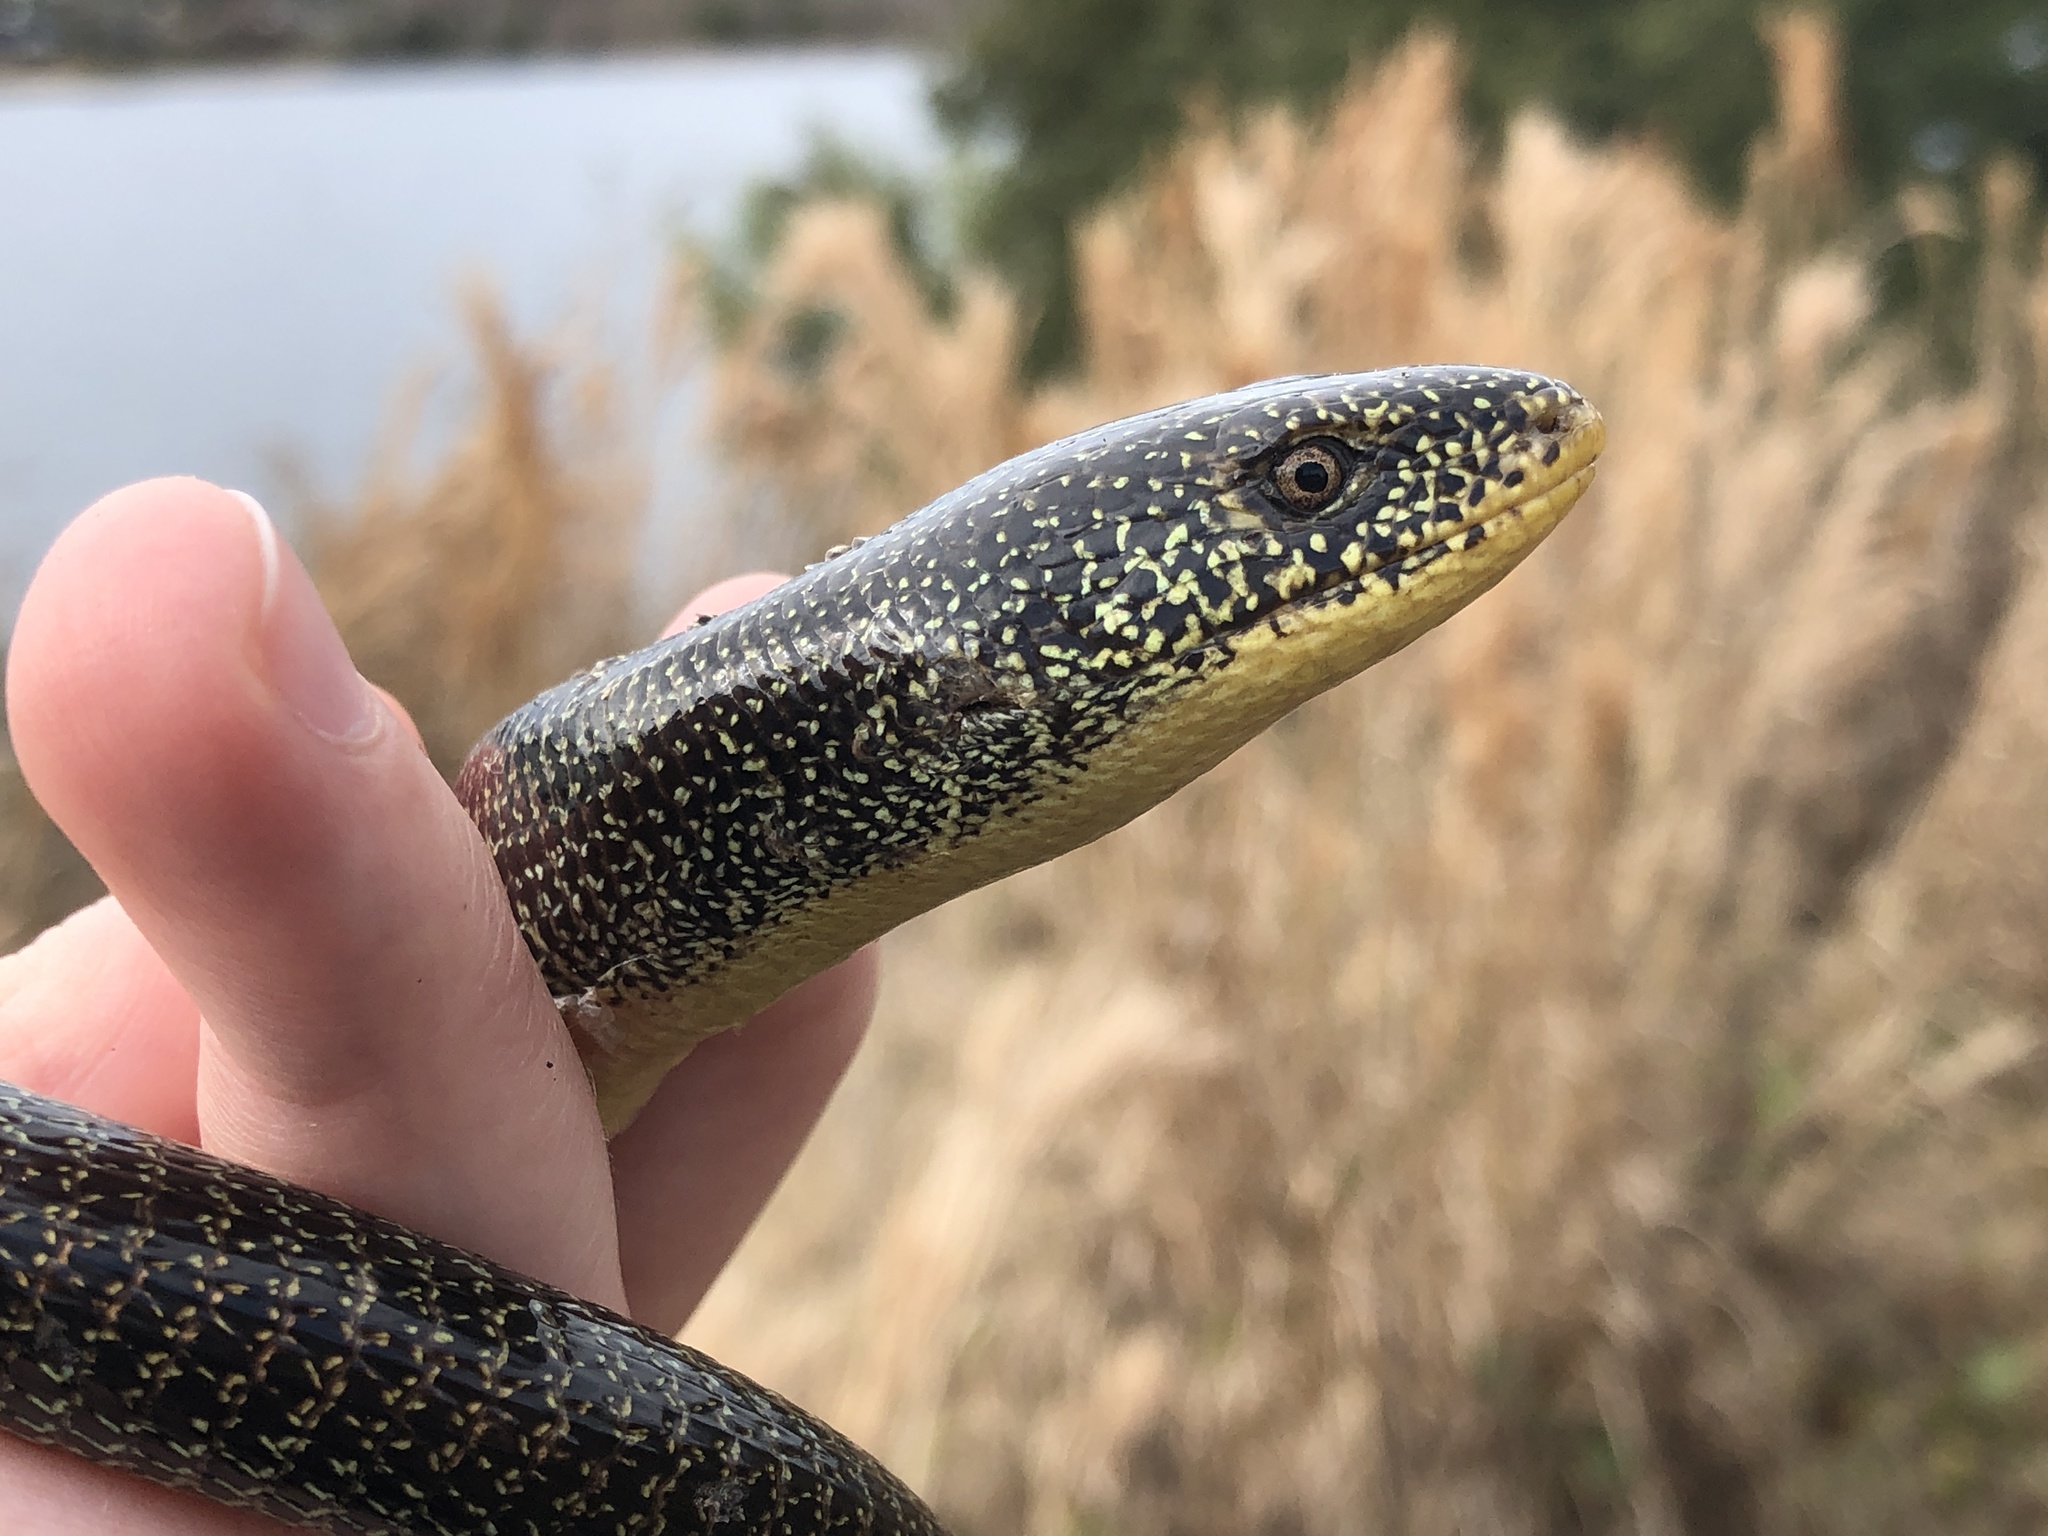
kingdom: Animalia
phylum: Chordata
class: Squamata
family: Anguidae
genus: Ophisaurus
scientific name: Ophisaurus ventralis
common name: Eastern glass lizard
